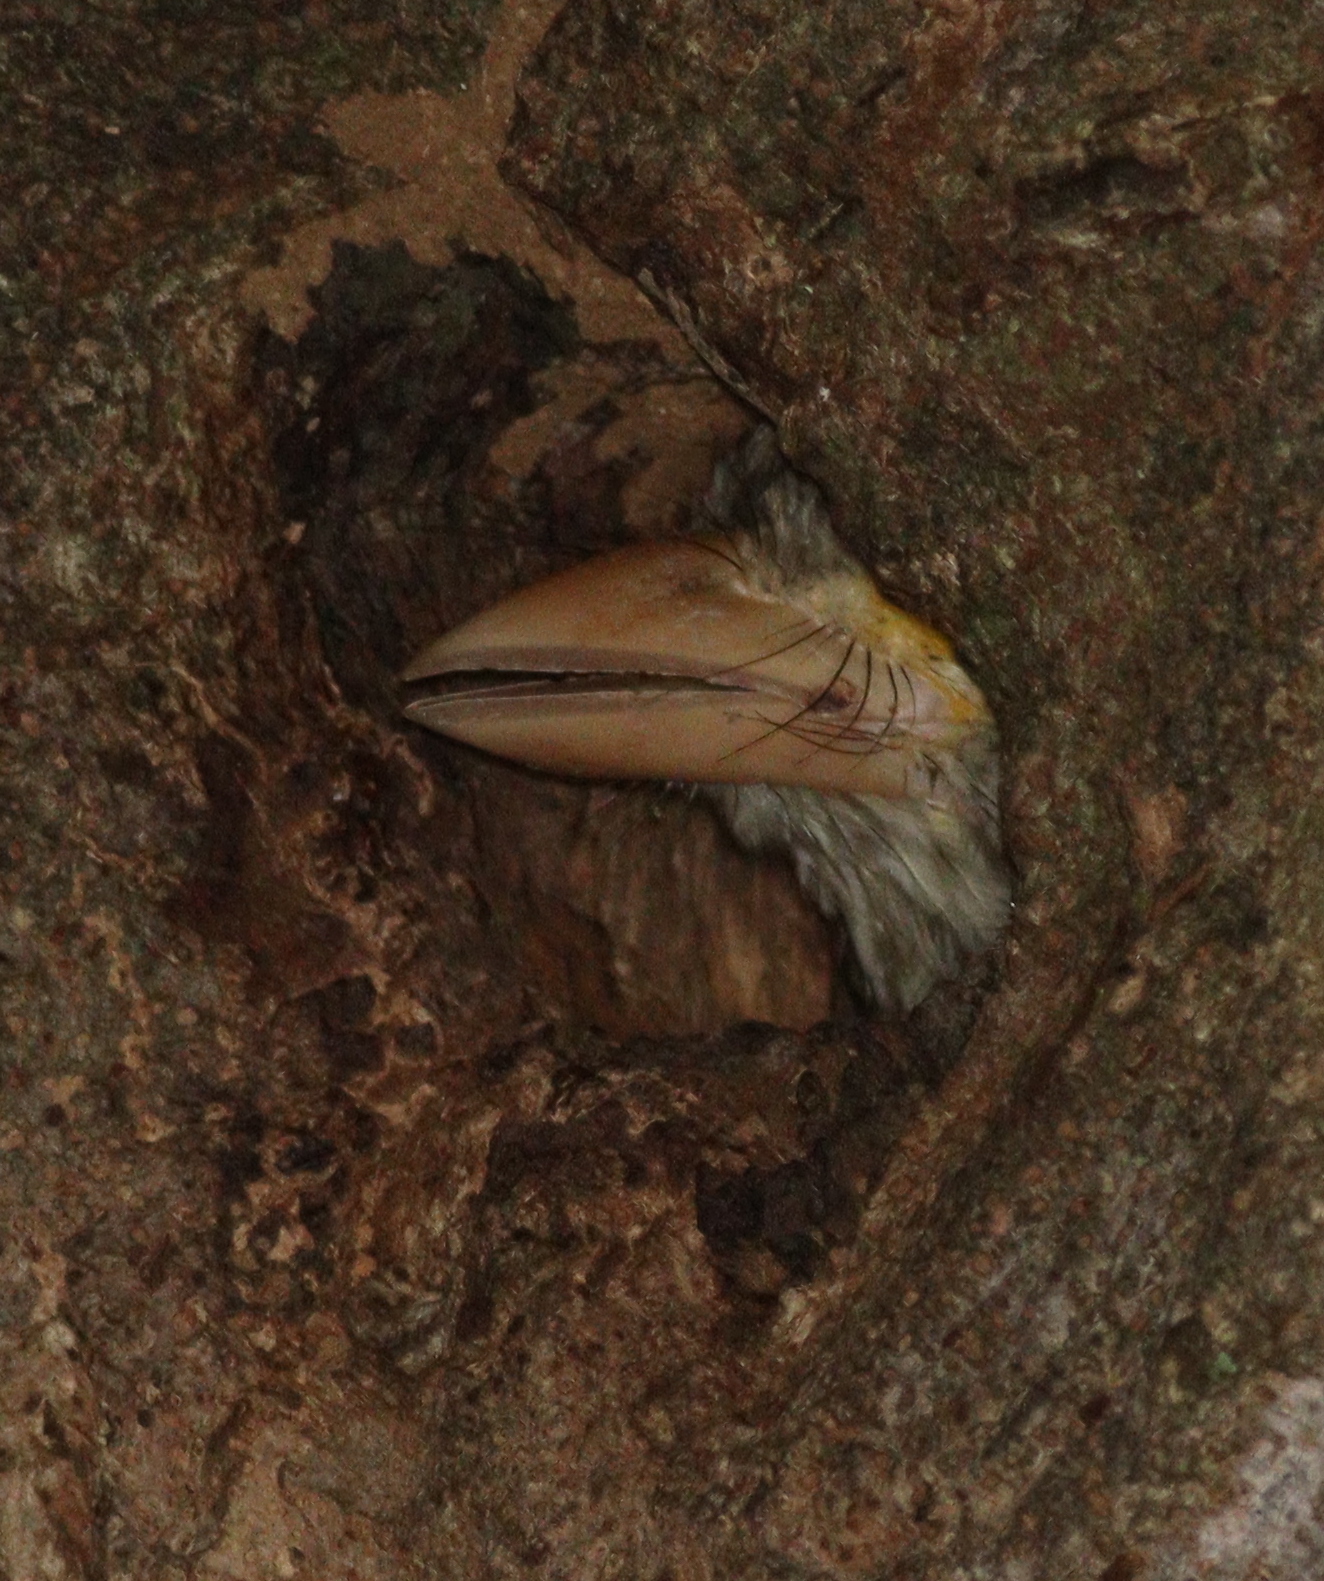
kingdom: Animalia
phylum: Chordata
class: Aves
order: Piciformes
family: Megalaimidae
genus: Psilopogon
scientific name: Psilopogon lineatus
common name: Lineated barbet
